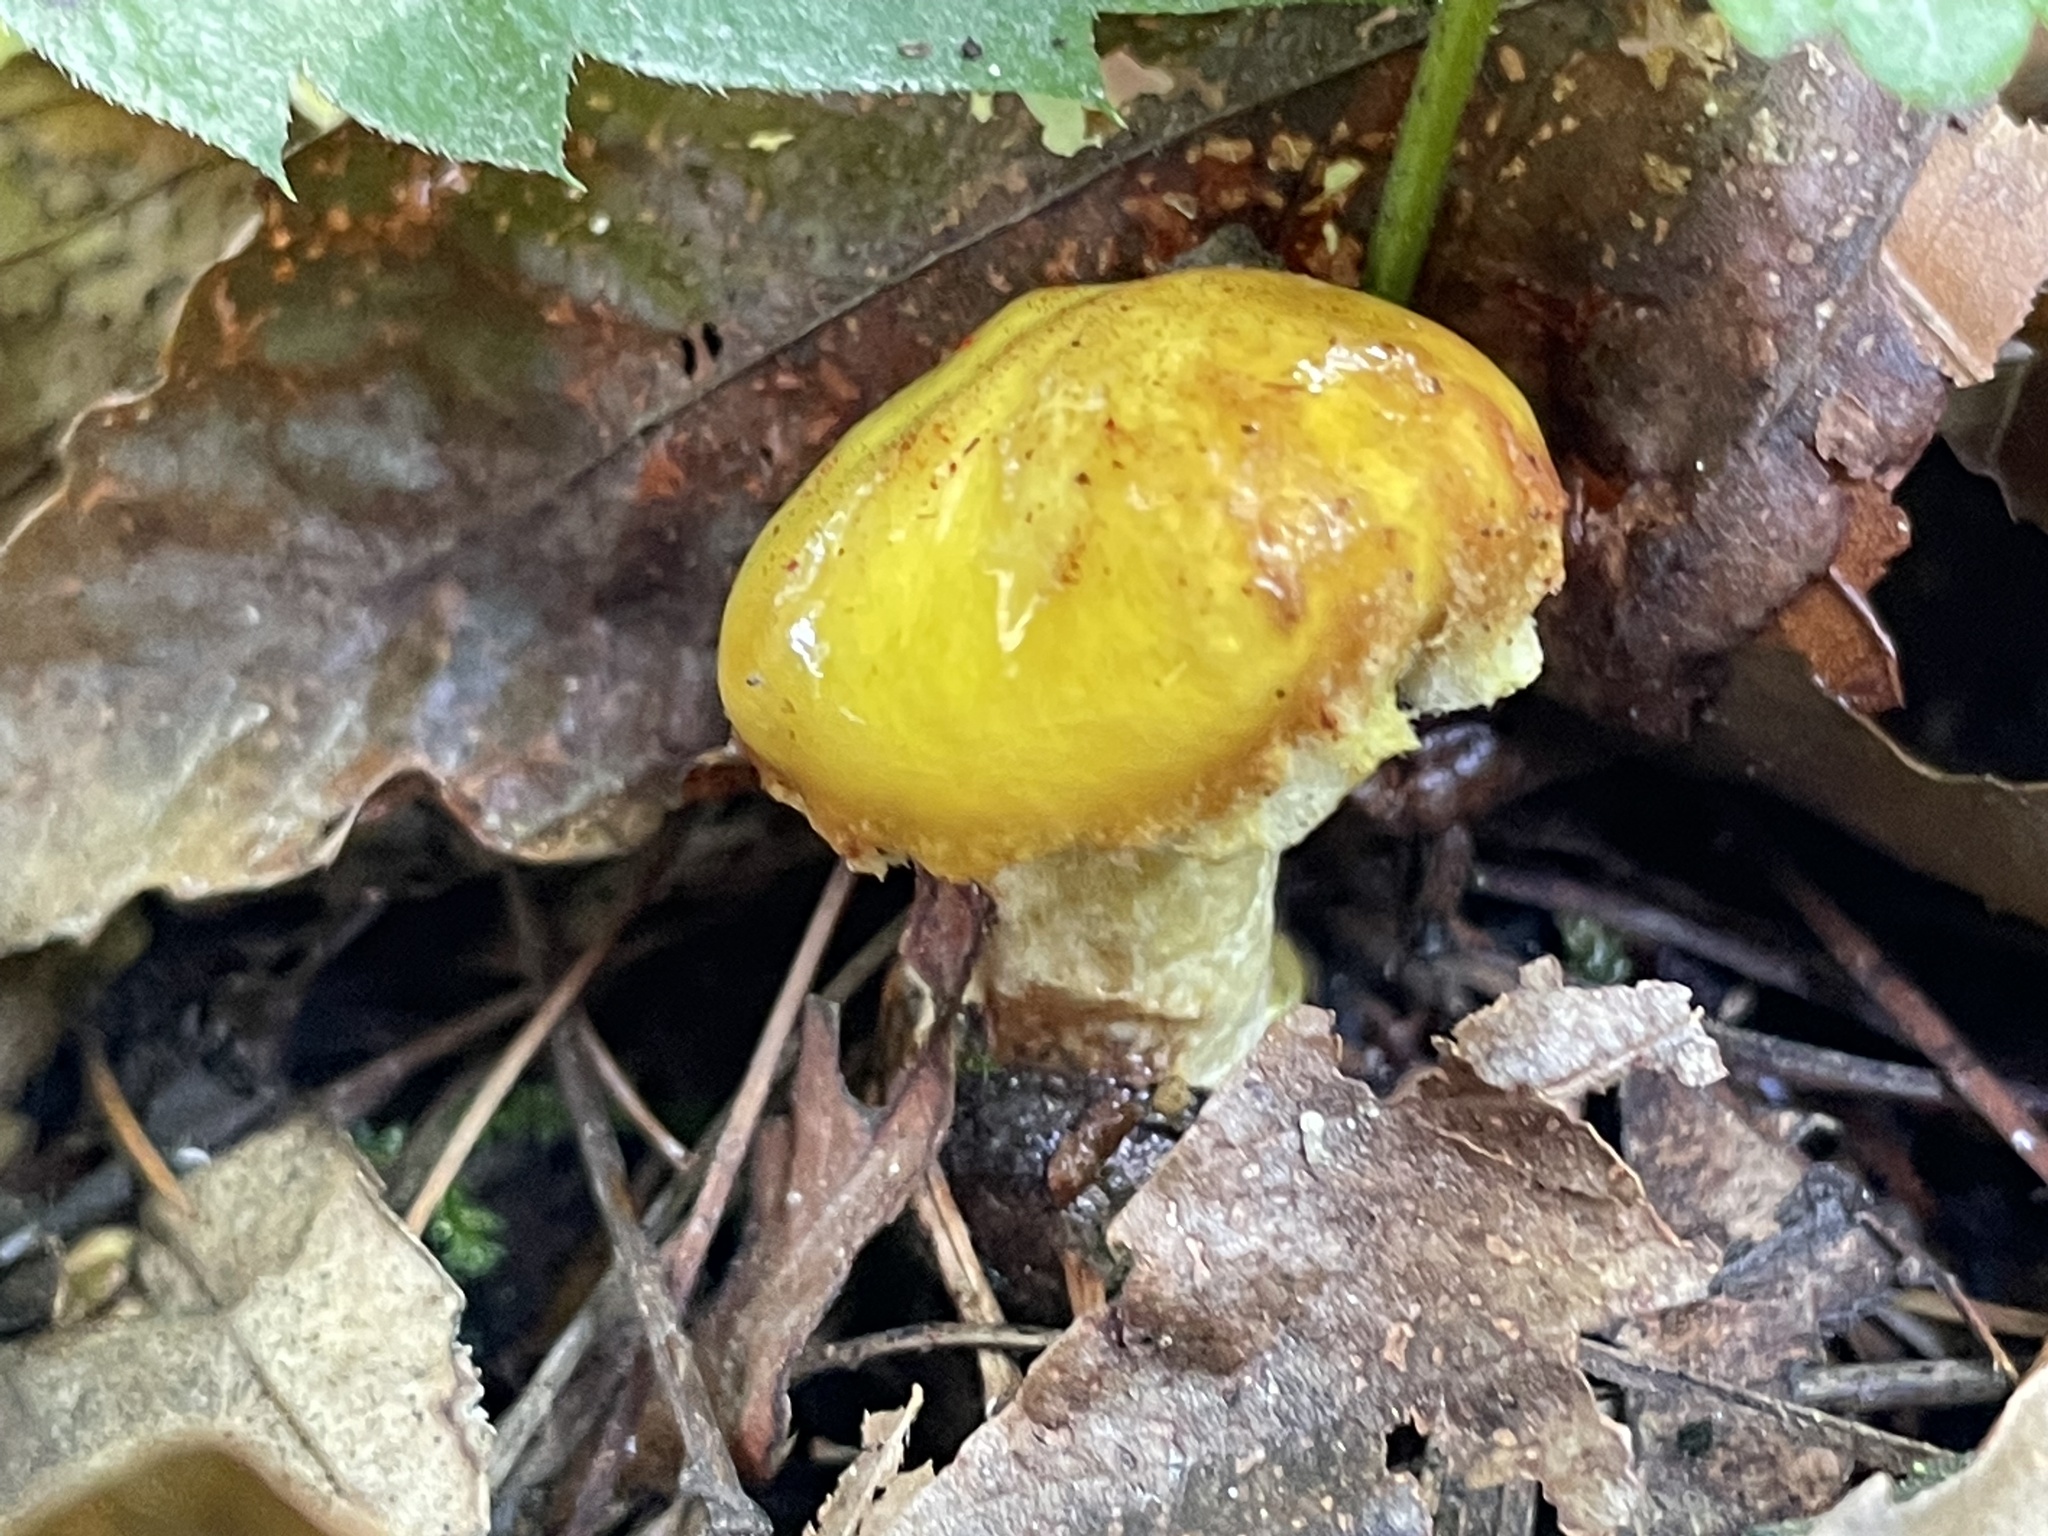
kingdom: Fungi
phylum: Basidiomycota
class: Agaricomycetes
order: Boletales
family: Suillaceae
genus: Suillus
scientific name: Suillus americanus
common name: Chicken fat mushroom
